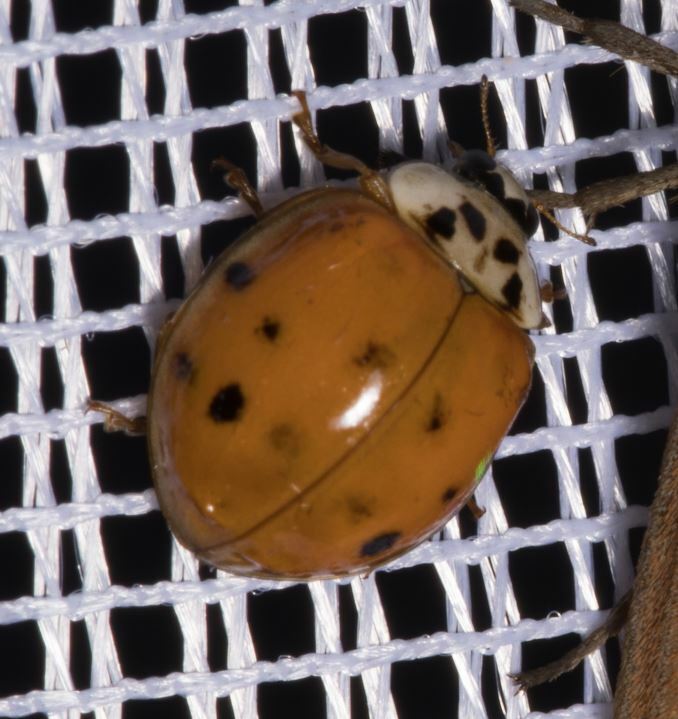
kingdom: Animalia
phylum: Arthropoda
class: Insecta
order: Coleoptera
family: Coccinellidae
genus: Harmonia
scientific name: Harmonia axyridis
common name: Harlequin ladybird
